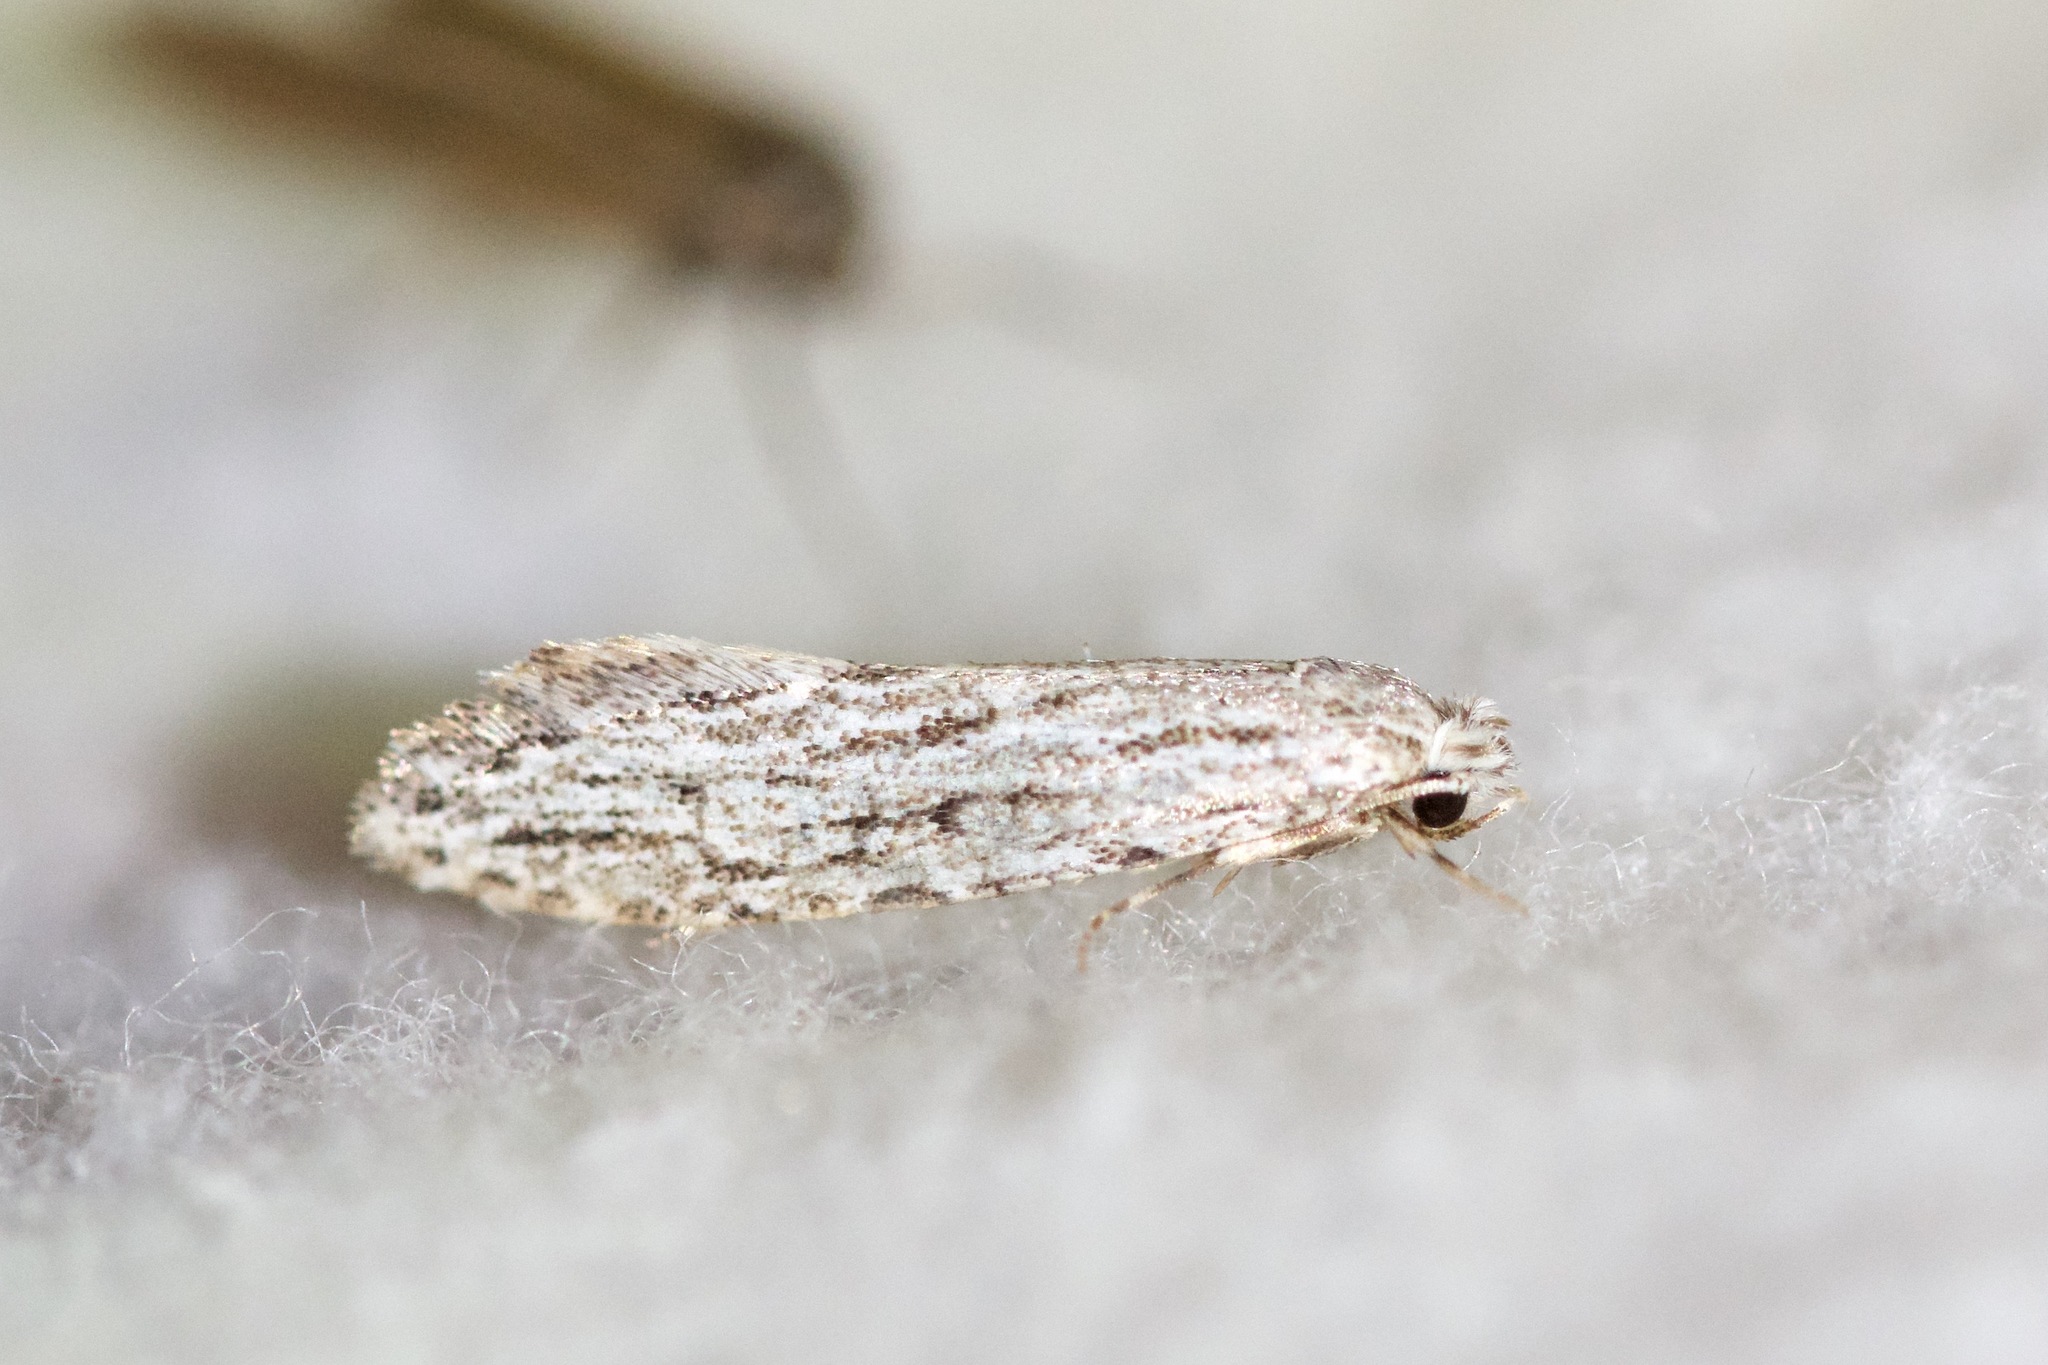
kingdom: Animalia
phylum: Arthropoda
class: Insecta
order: Lepidoptera
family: Tineidae
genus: Nemapogon
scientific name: Nemapogon multistriatella
